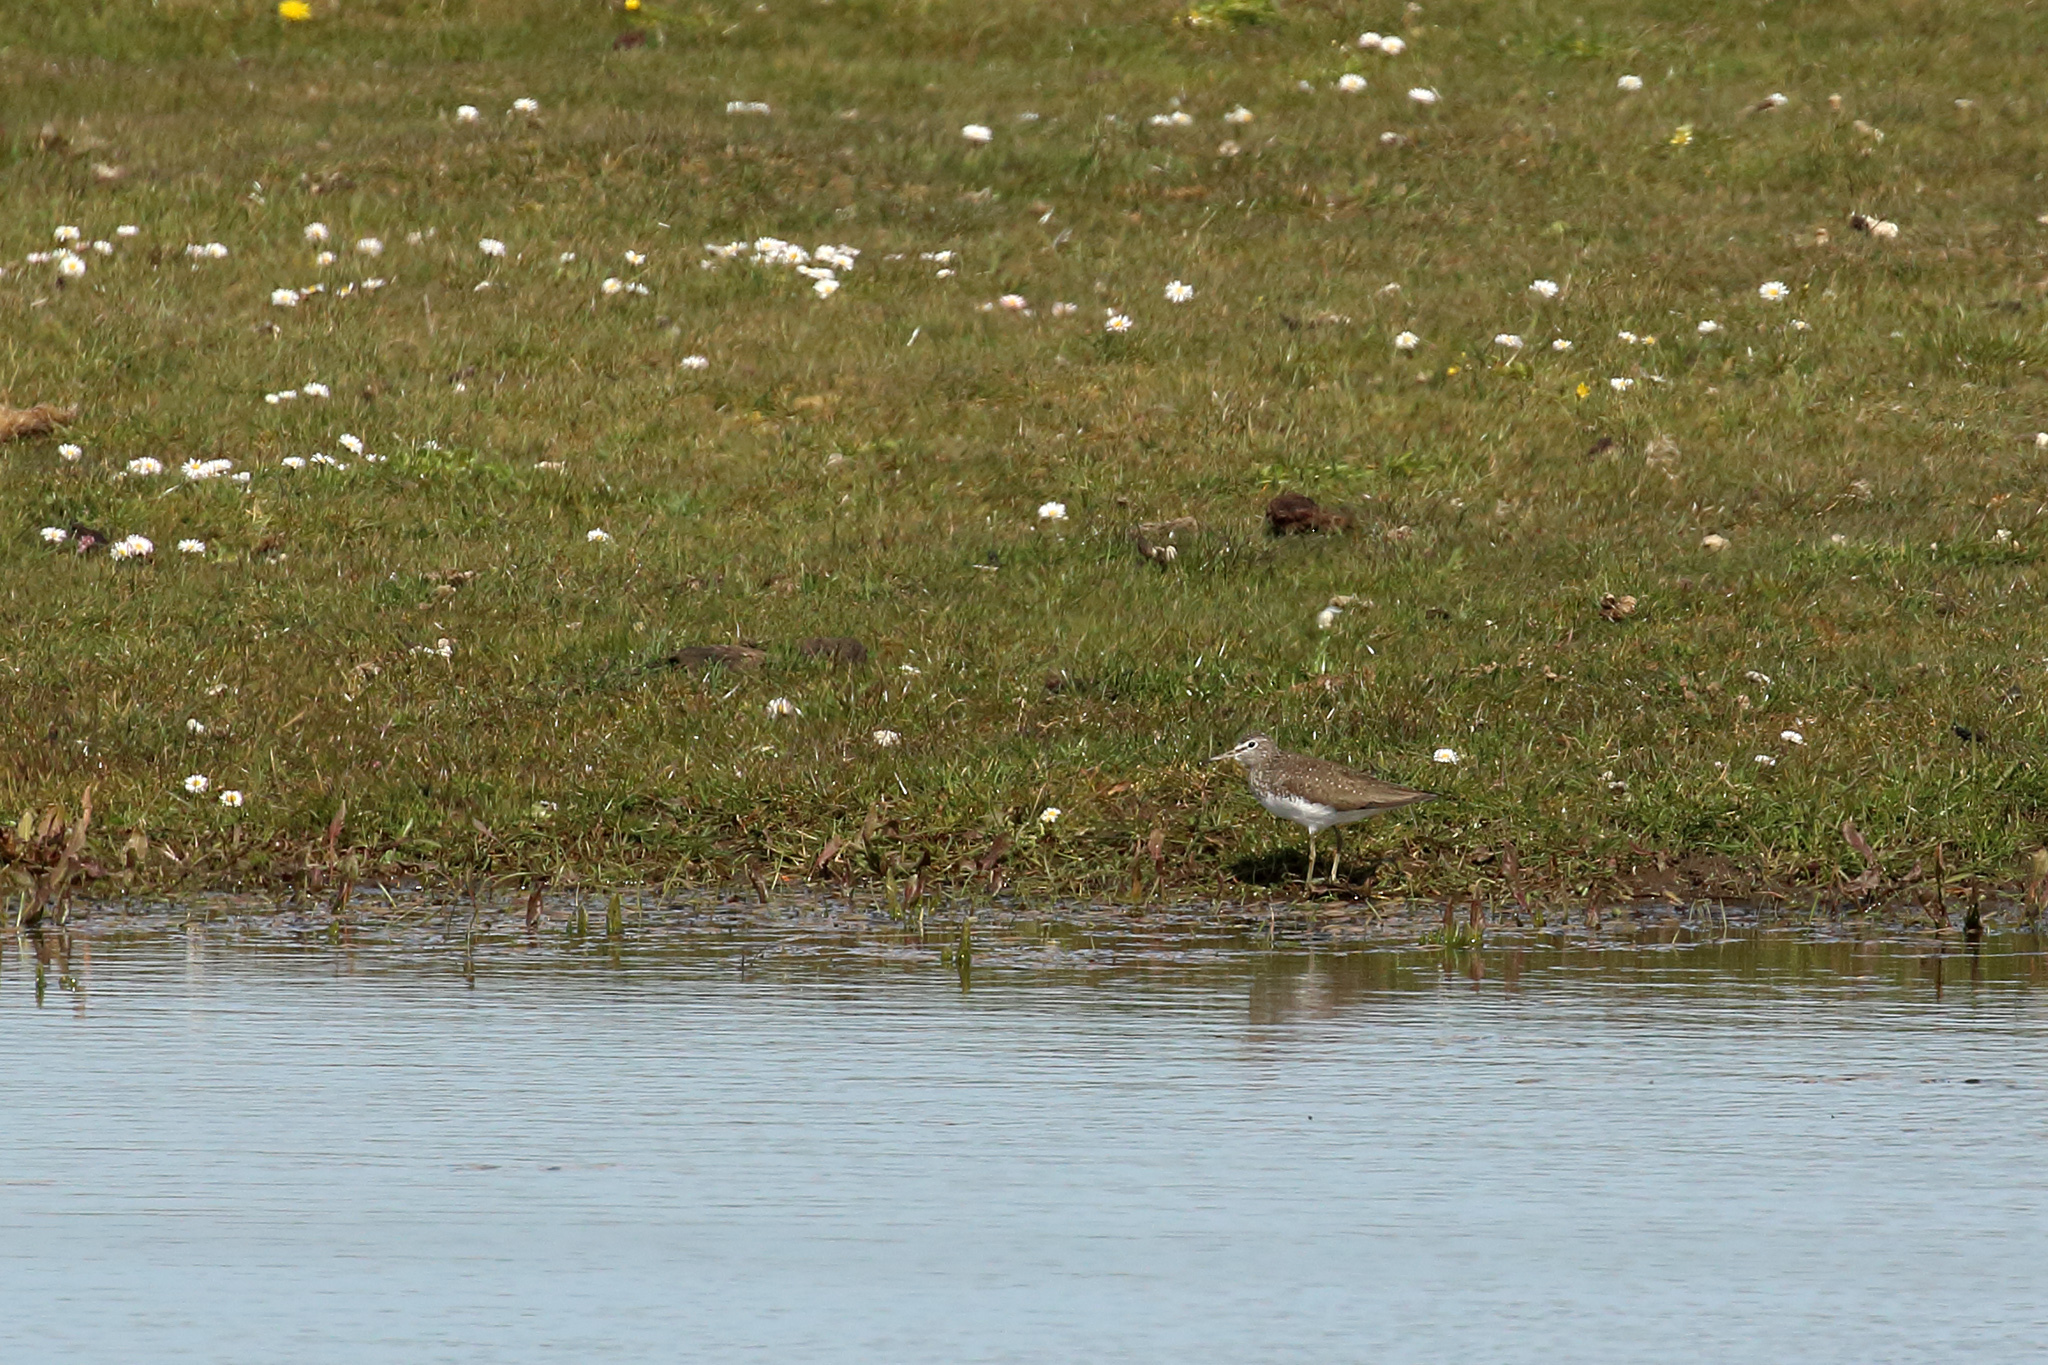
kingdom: Animalia
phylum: Chordata
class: Aves
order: Charadriiformes
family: Scolopacidae
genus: Tringa
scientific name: Tringa ochropus
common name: Green sandpiper
